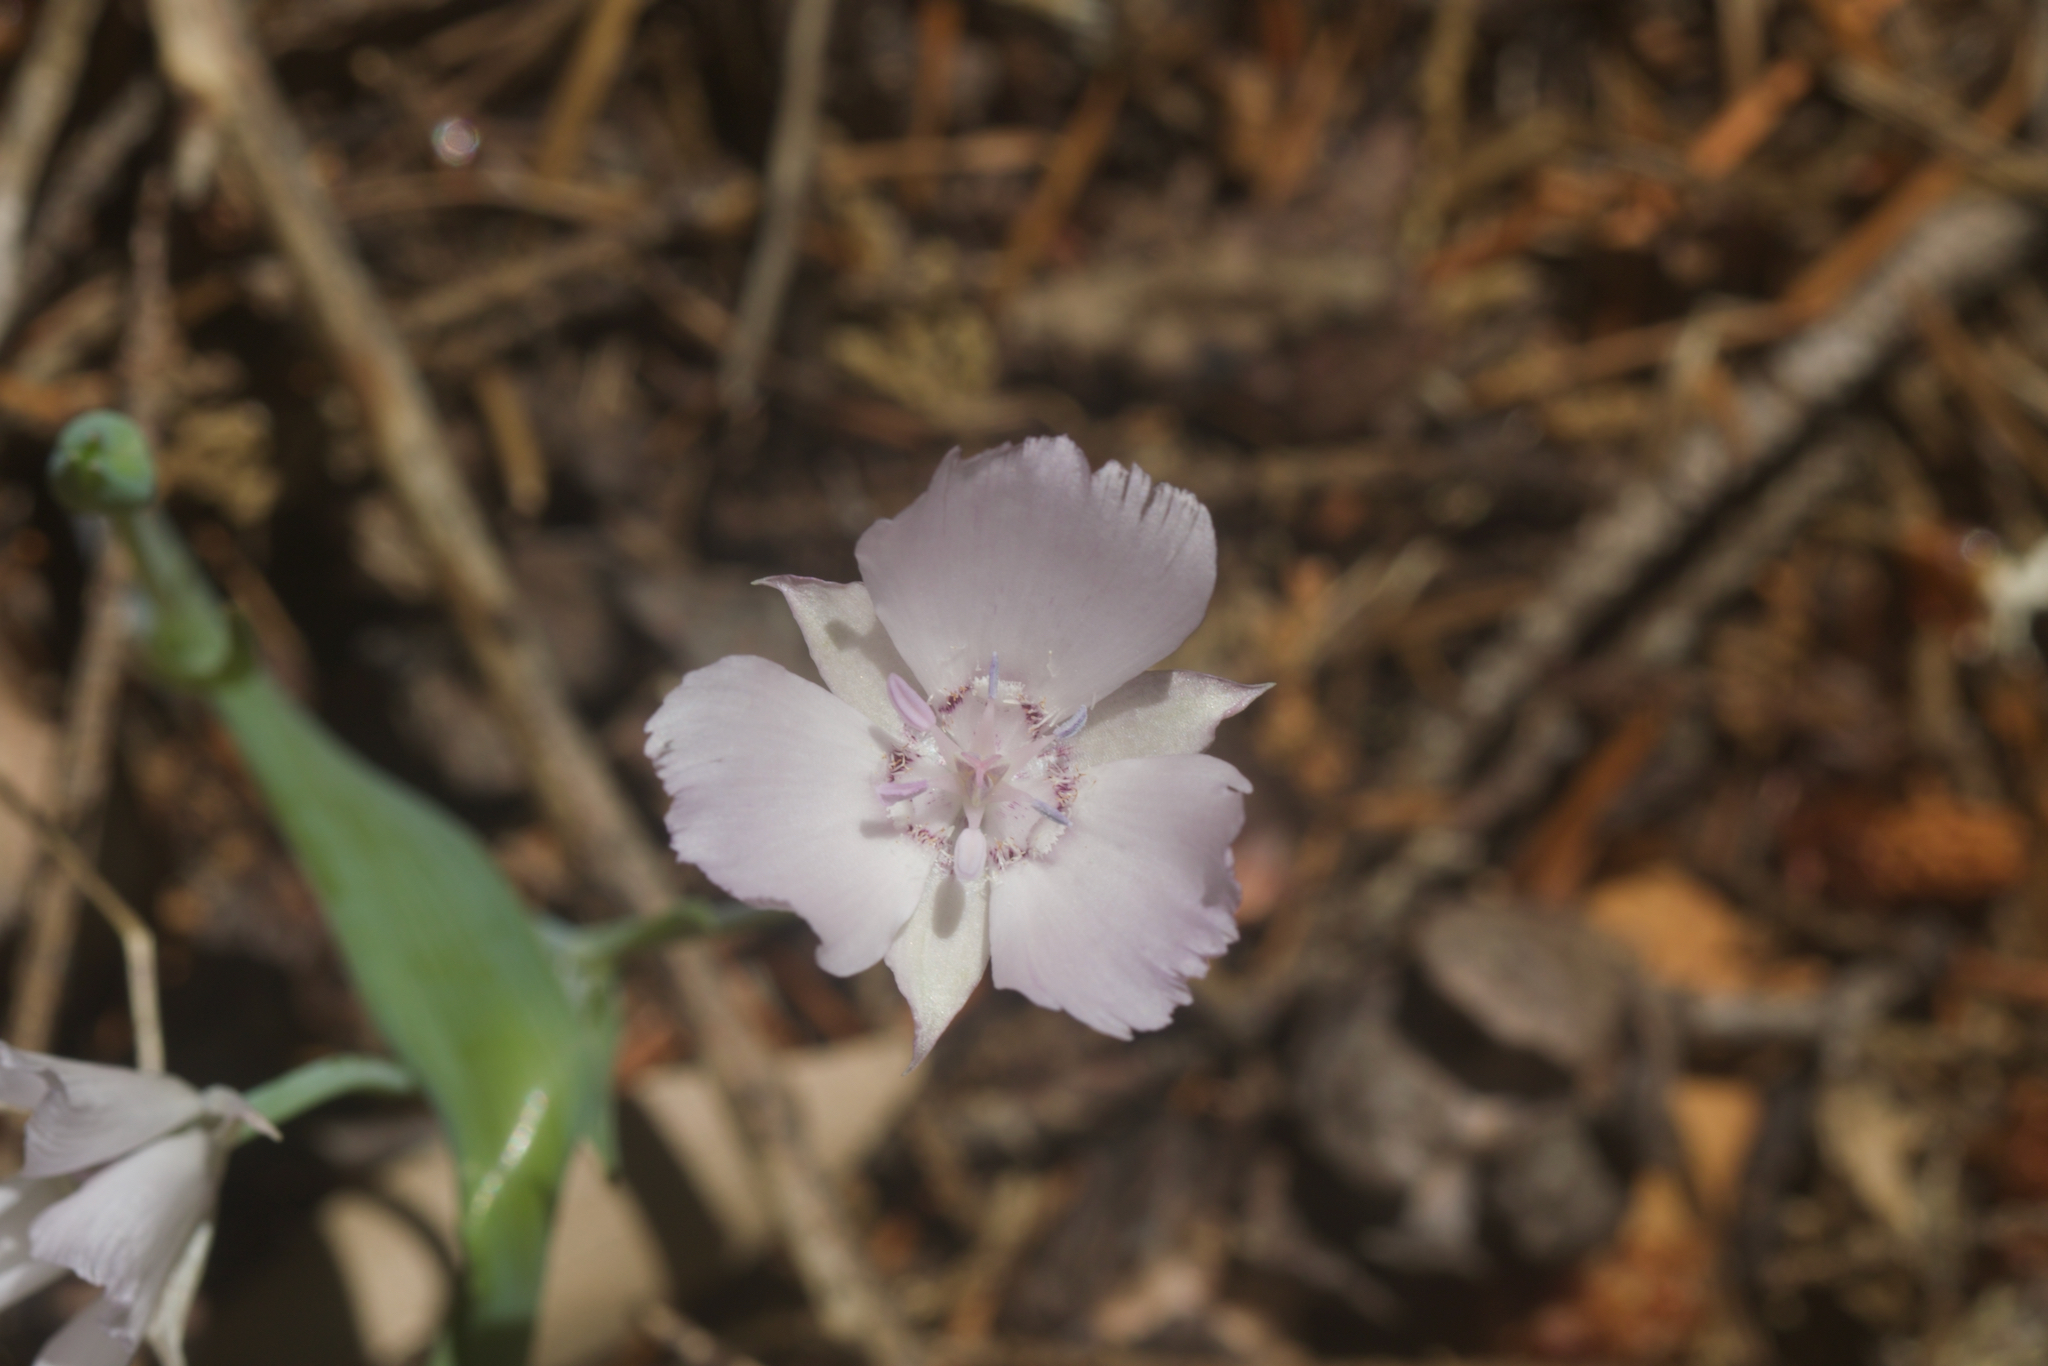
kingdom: Plantae
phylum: Tracheophyta
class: Liliopsida
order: Liliales
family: Liliaceae
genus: Calochortus
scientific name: Calochortus umbellatus
